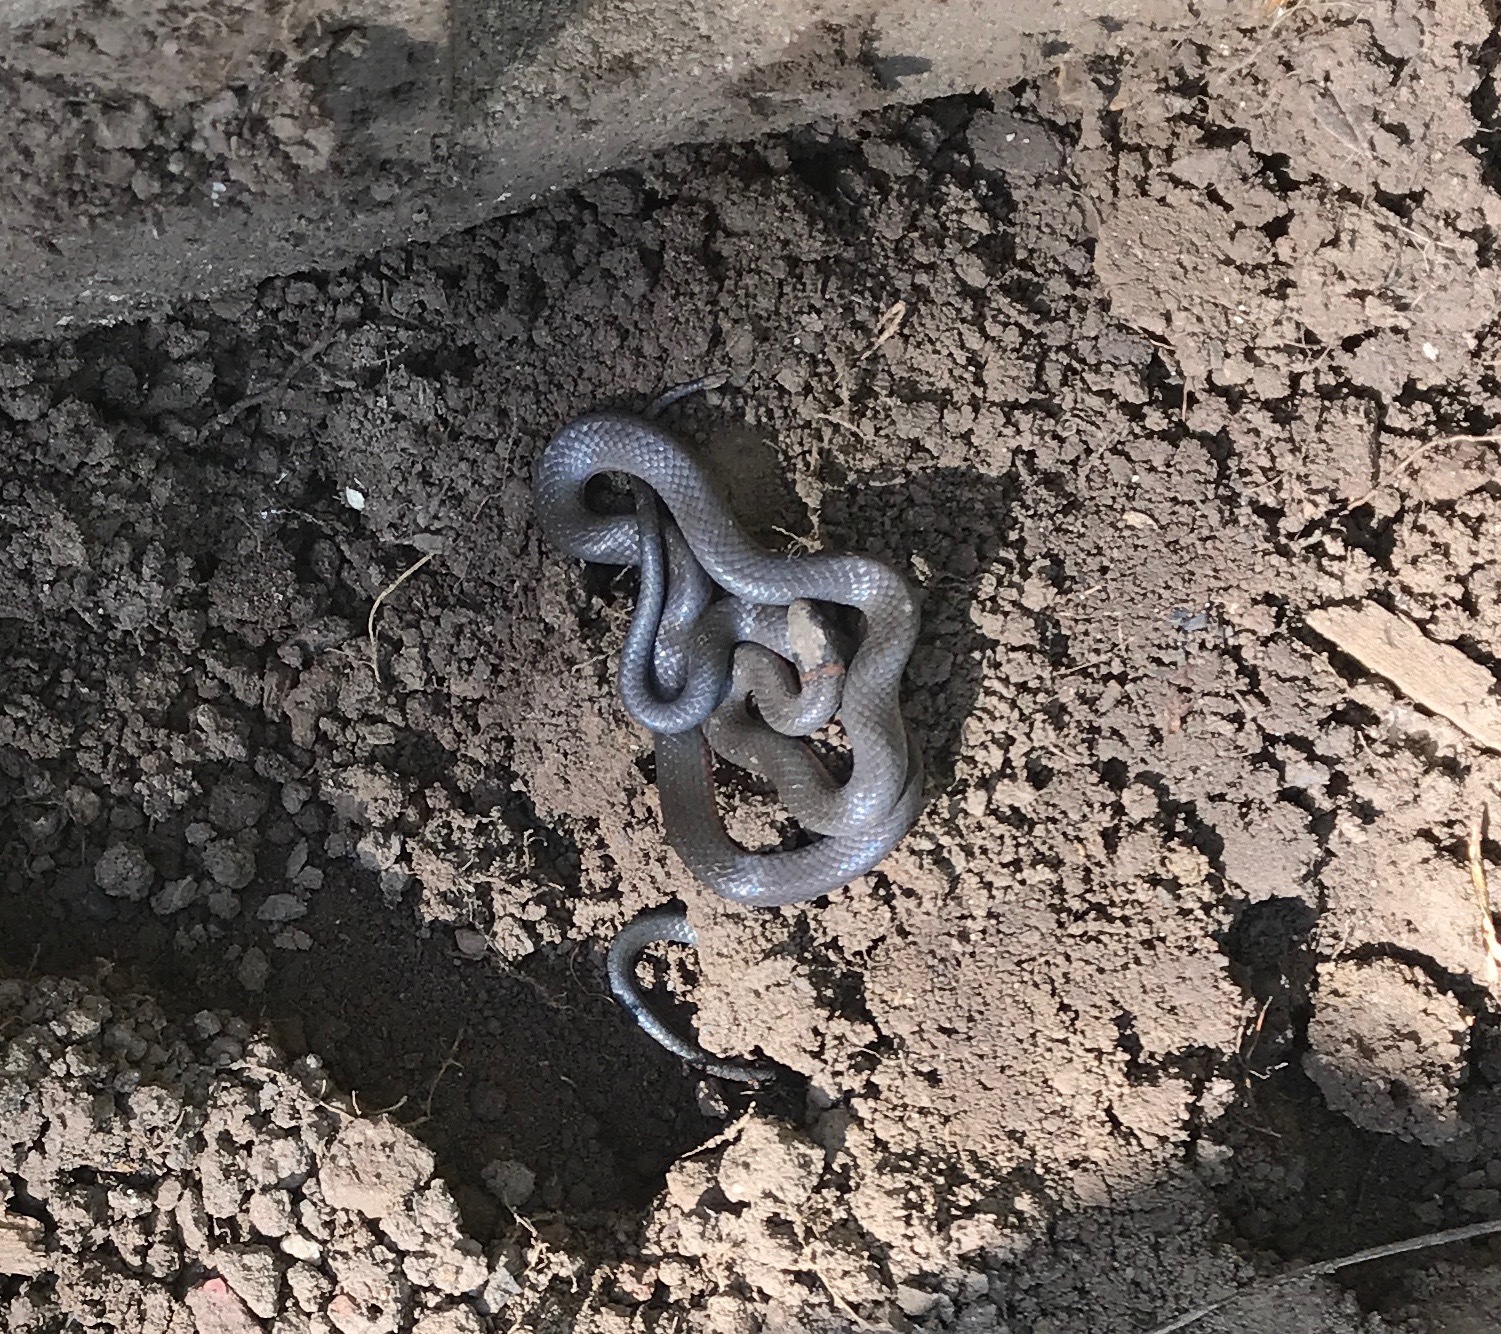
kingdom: Animalia
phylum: Chordata
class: Squamata
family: Colubridae
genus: Diadophis
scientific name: Diadophis punctatus
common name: Ringneck snake
